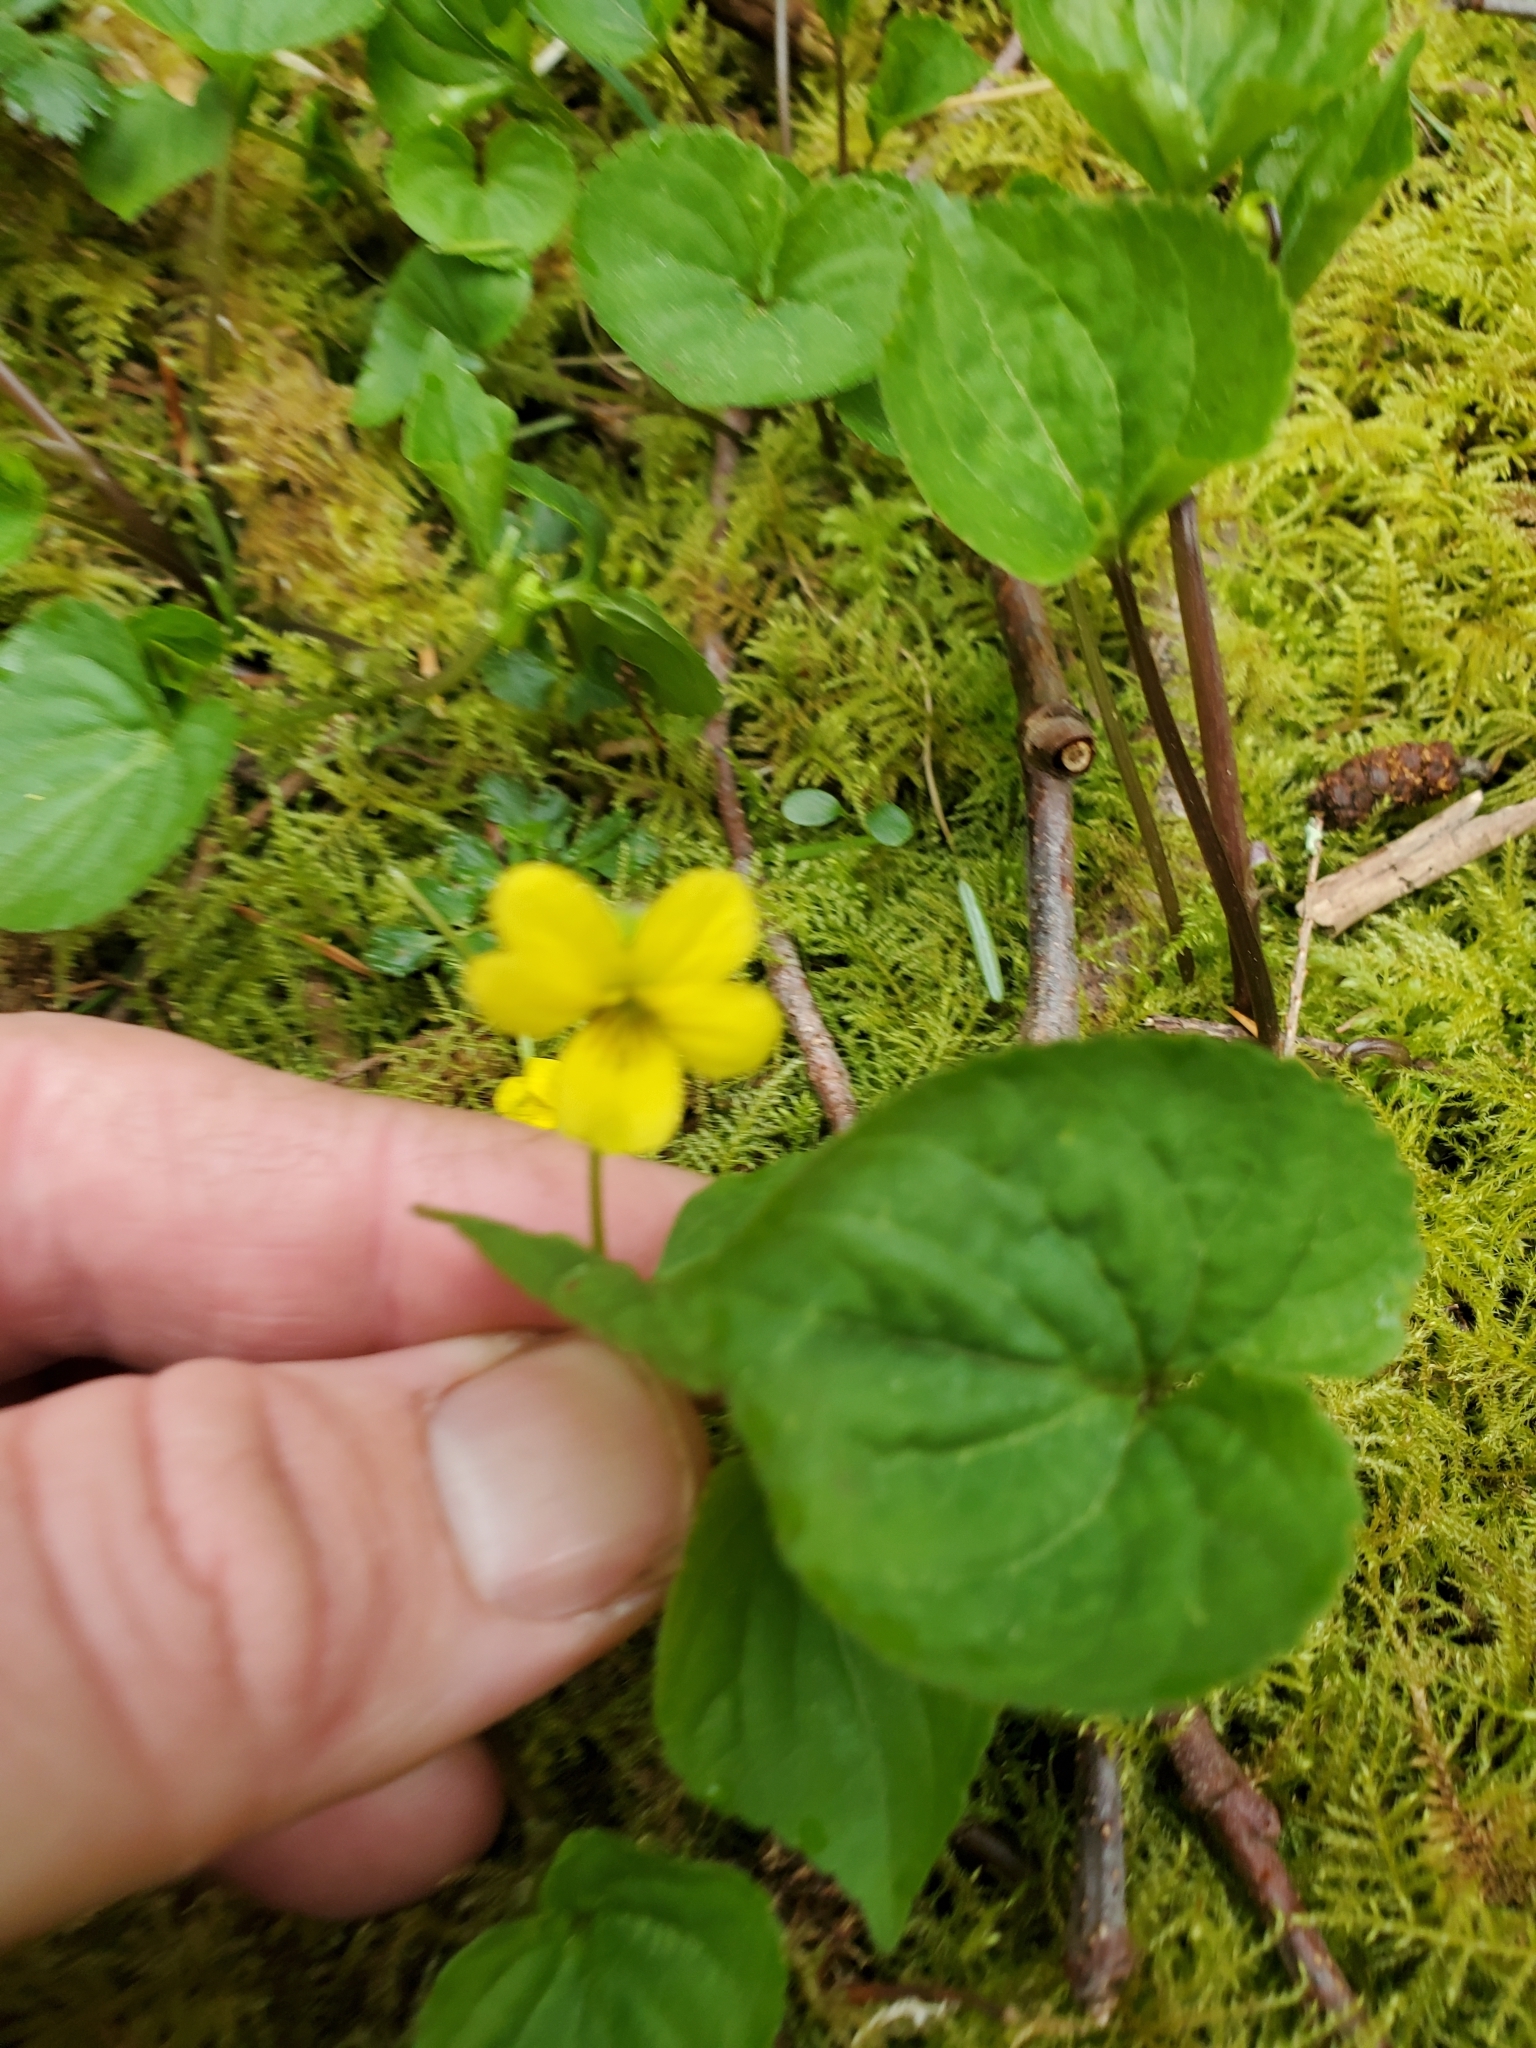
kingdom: Plantae
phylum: Tracheophyta
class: Magnoliopsida
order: Malpighiales
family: Violaceae
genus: Viola
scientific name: Viola glabella
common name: Stream violet
